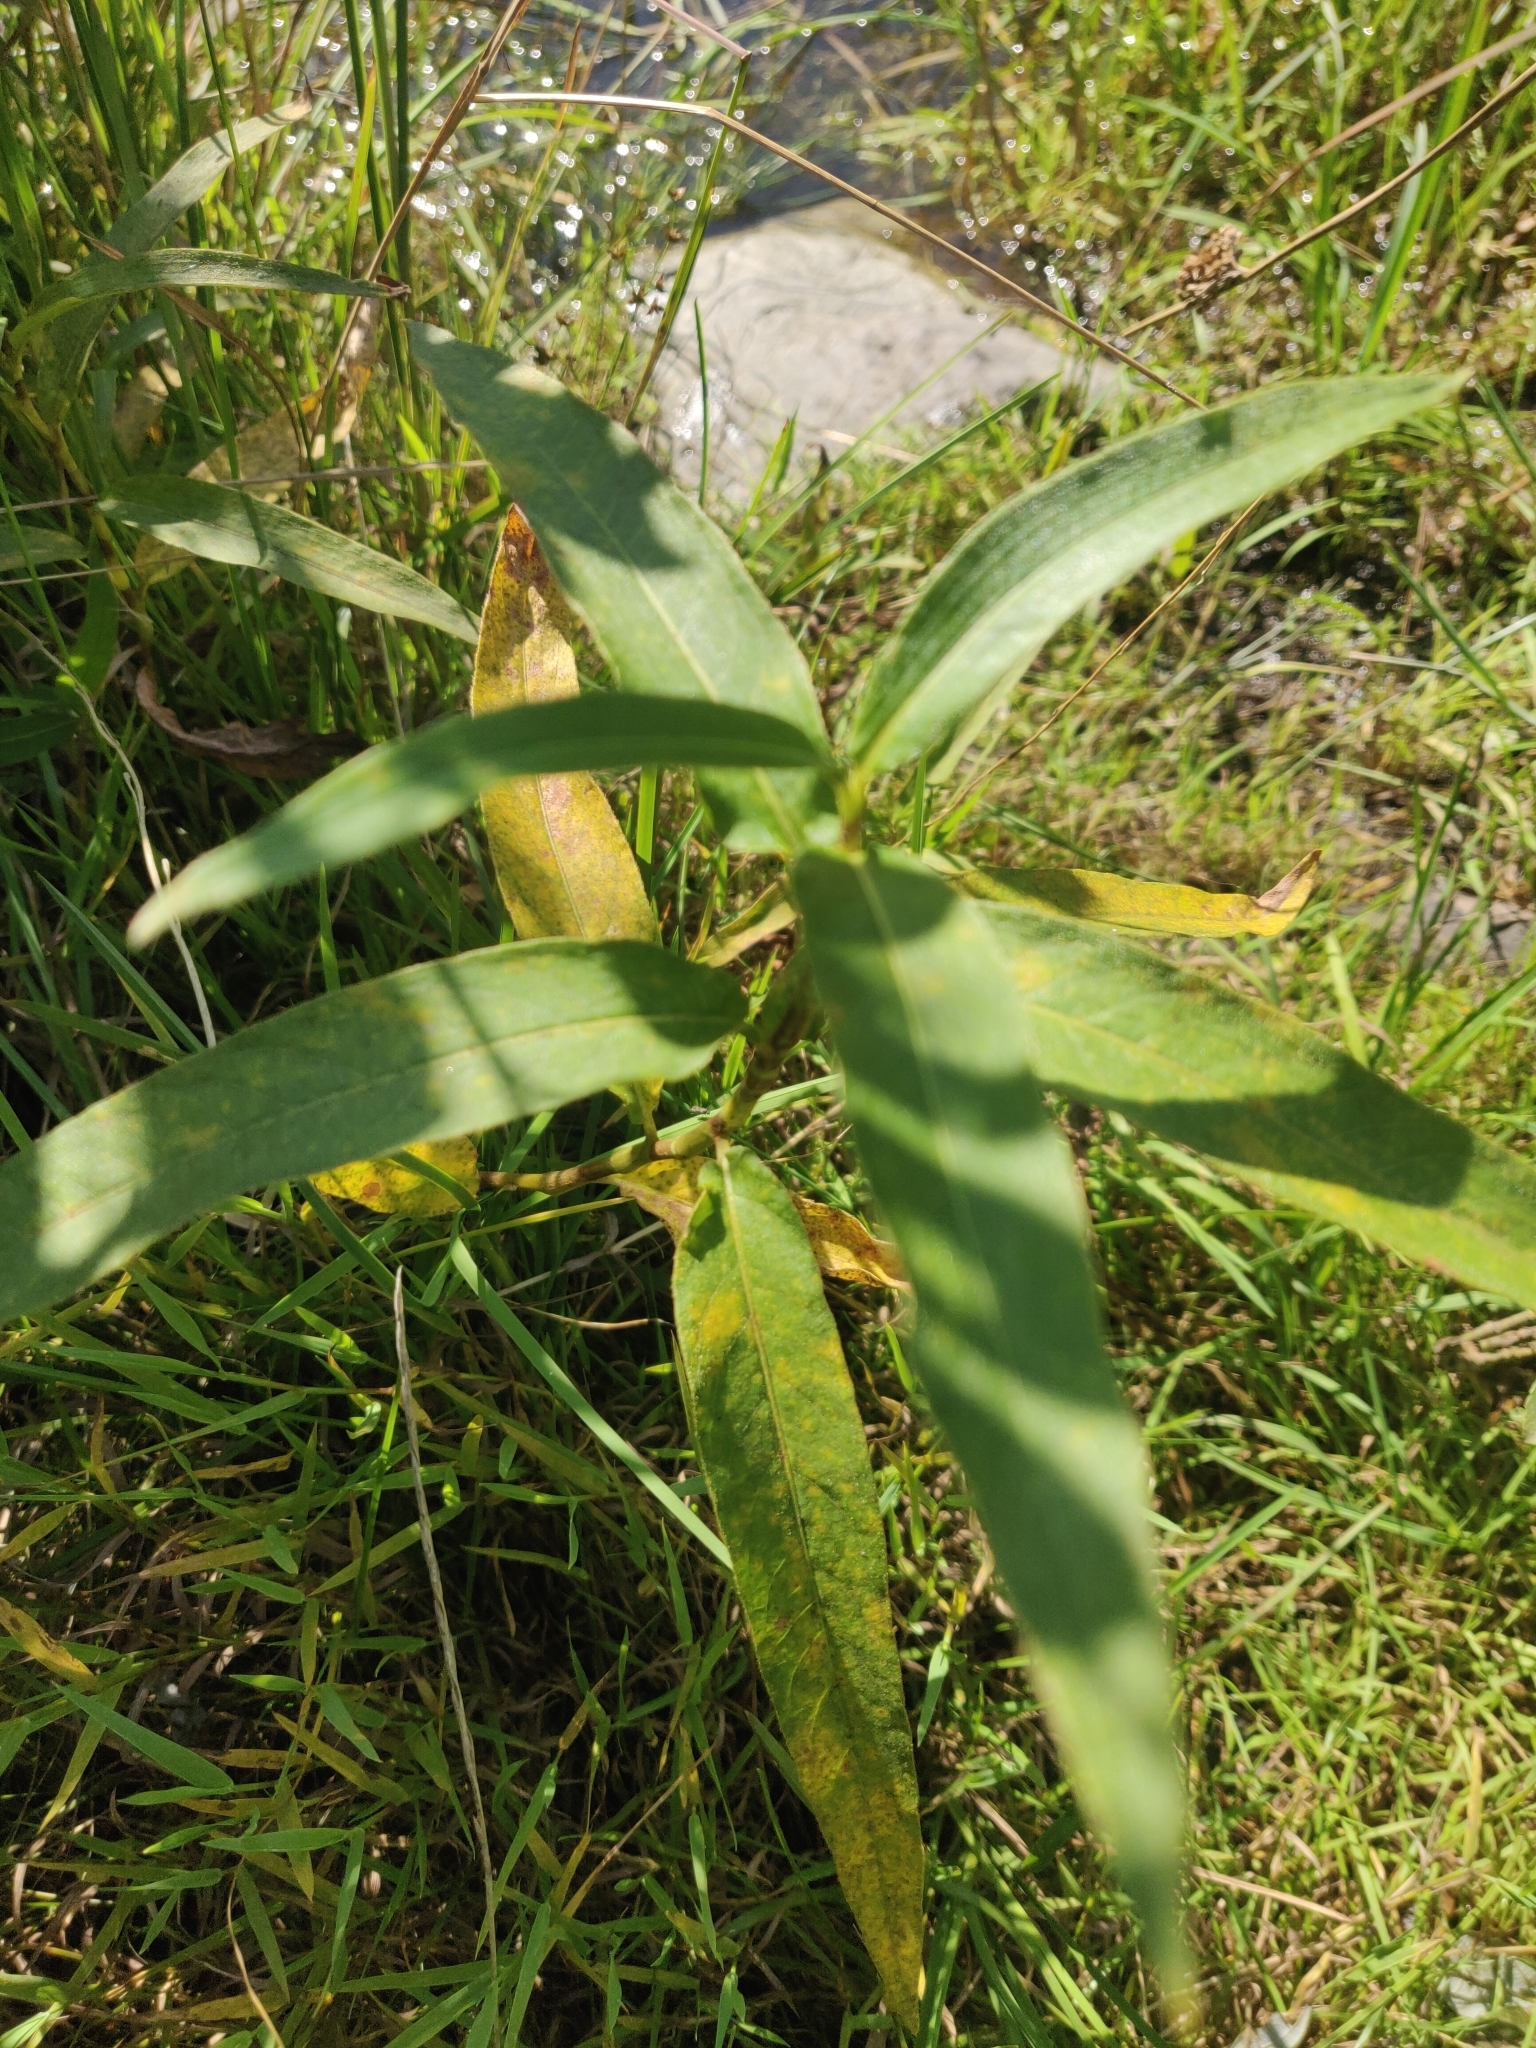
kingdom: Plantae
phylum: Tracheophyta
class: Magnoliopsida
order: Caryophyllales
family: Polygonaceae
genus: Persicaria
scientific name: Persicaria amphibia
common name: Amphibious bistort
